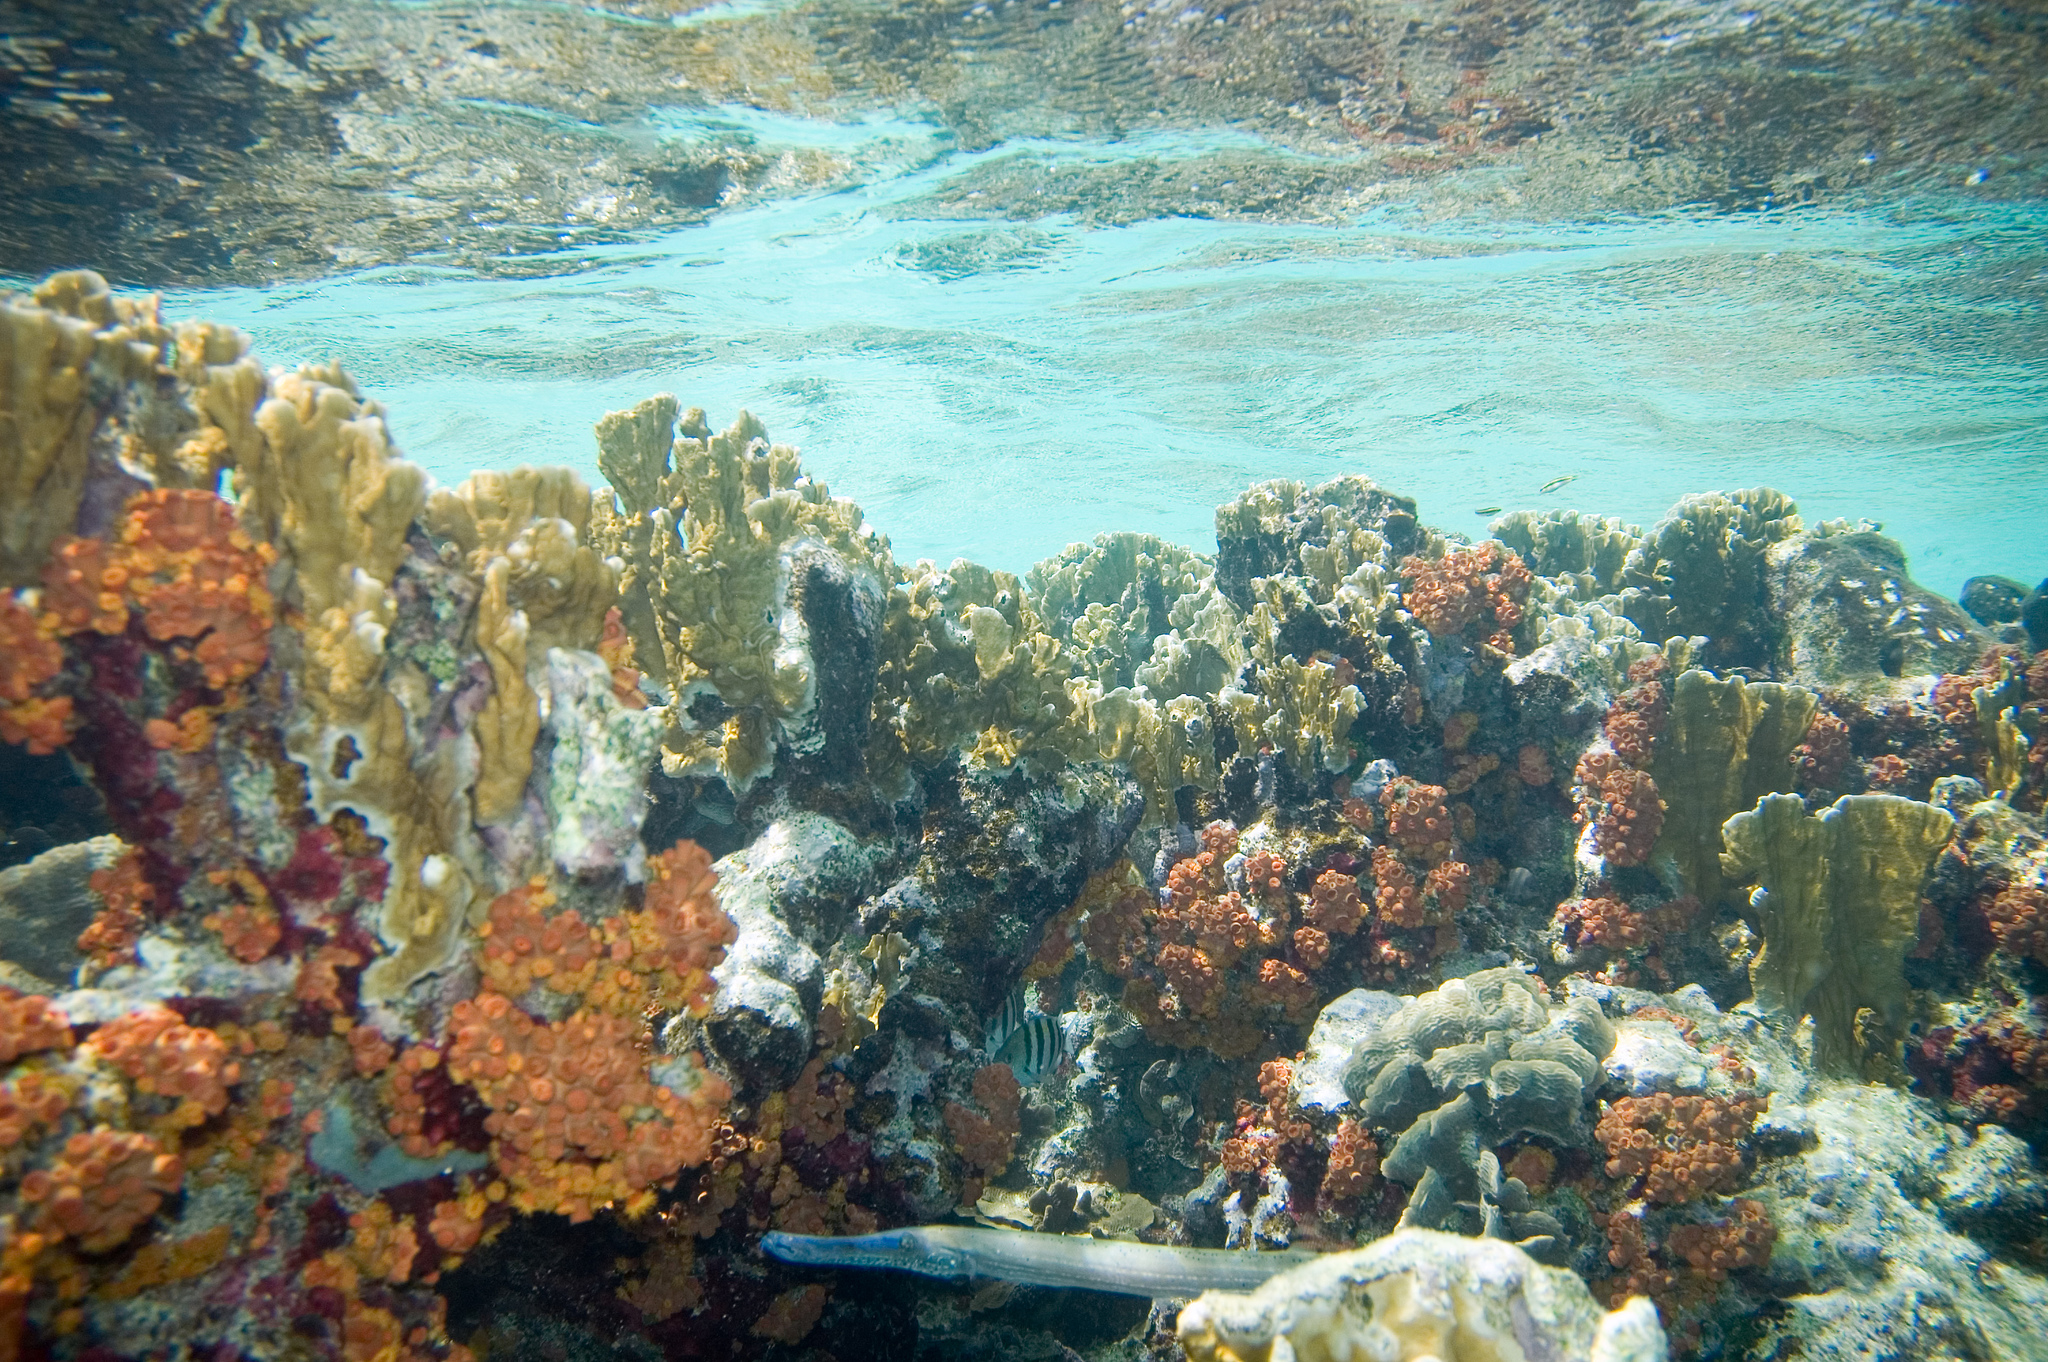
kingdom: Animalia
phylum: Chordata
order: Syngnathiformes
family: Aulostomidae
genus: Aulostomus
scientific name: Aulostomus maculatus
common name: West atlantic trumpetfish
